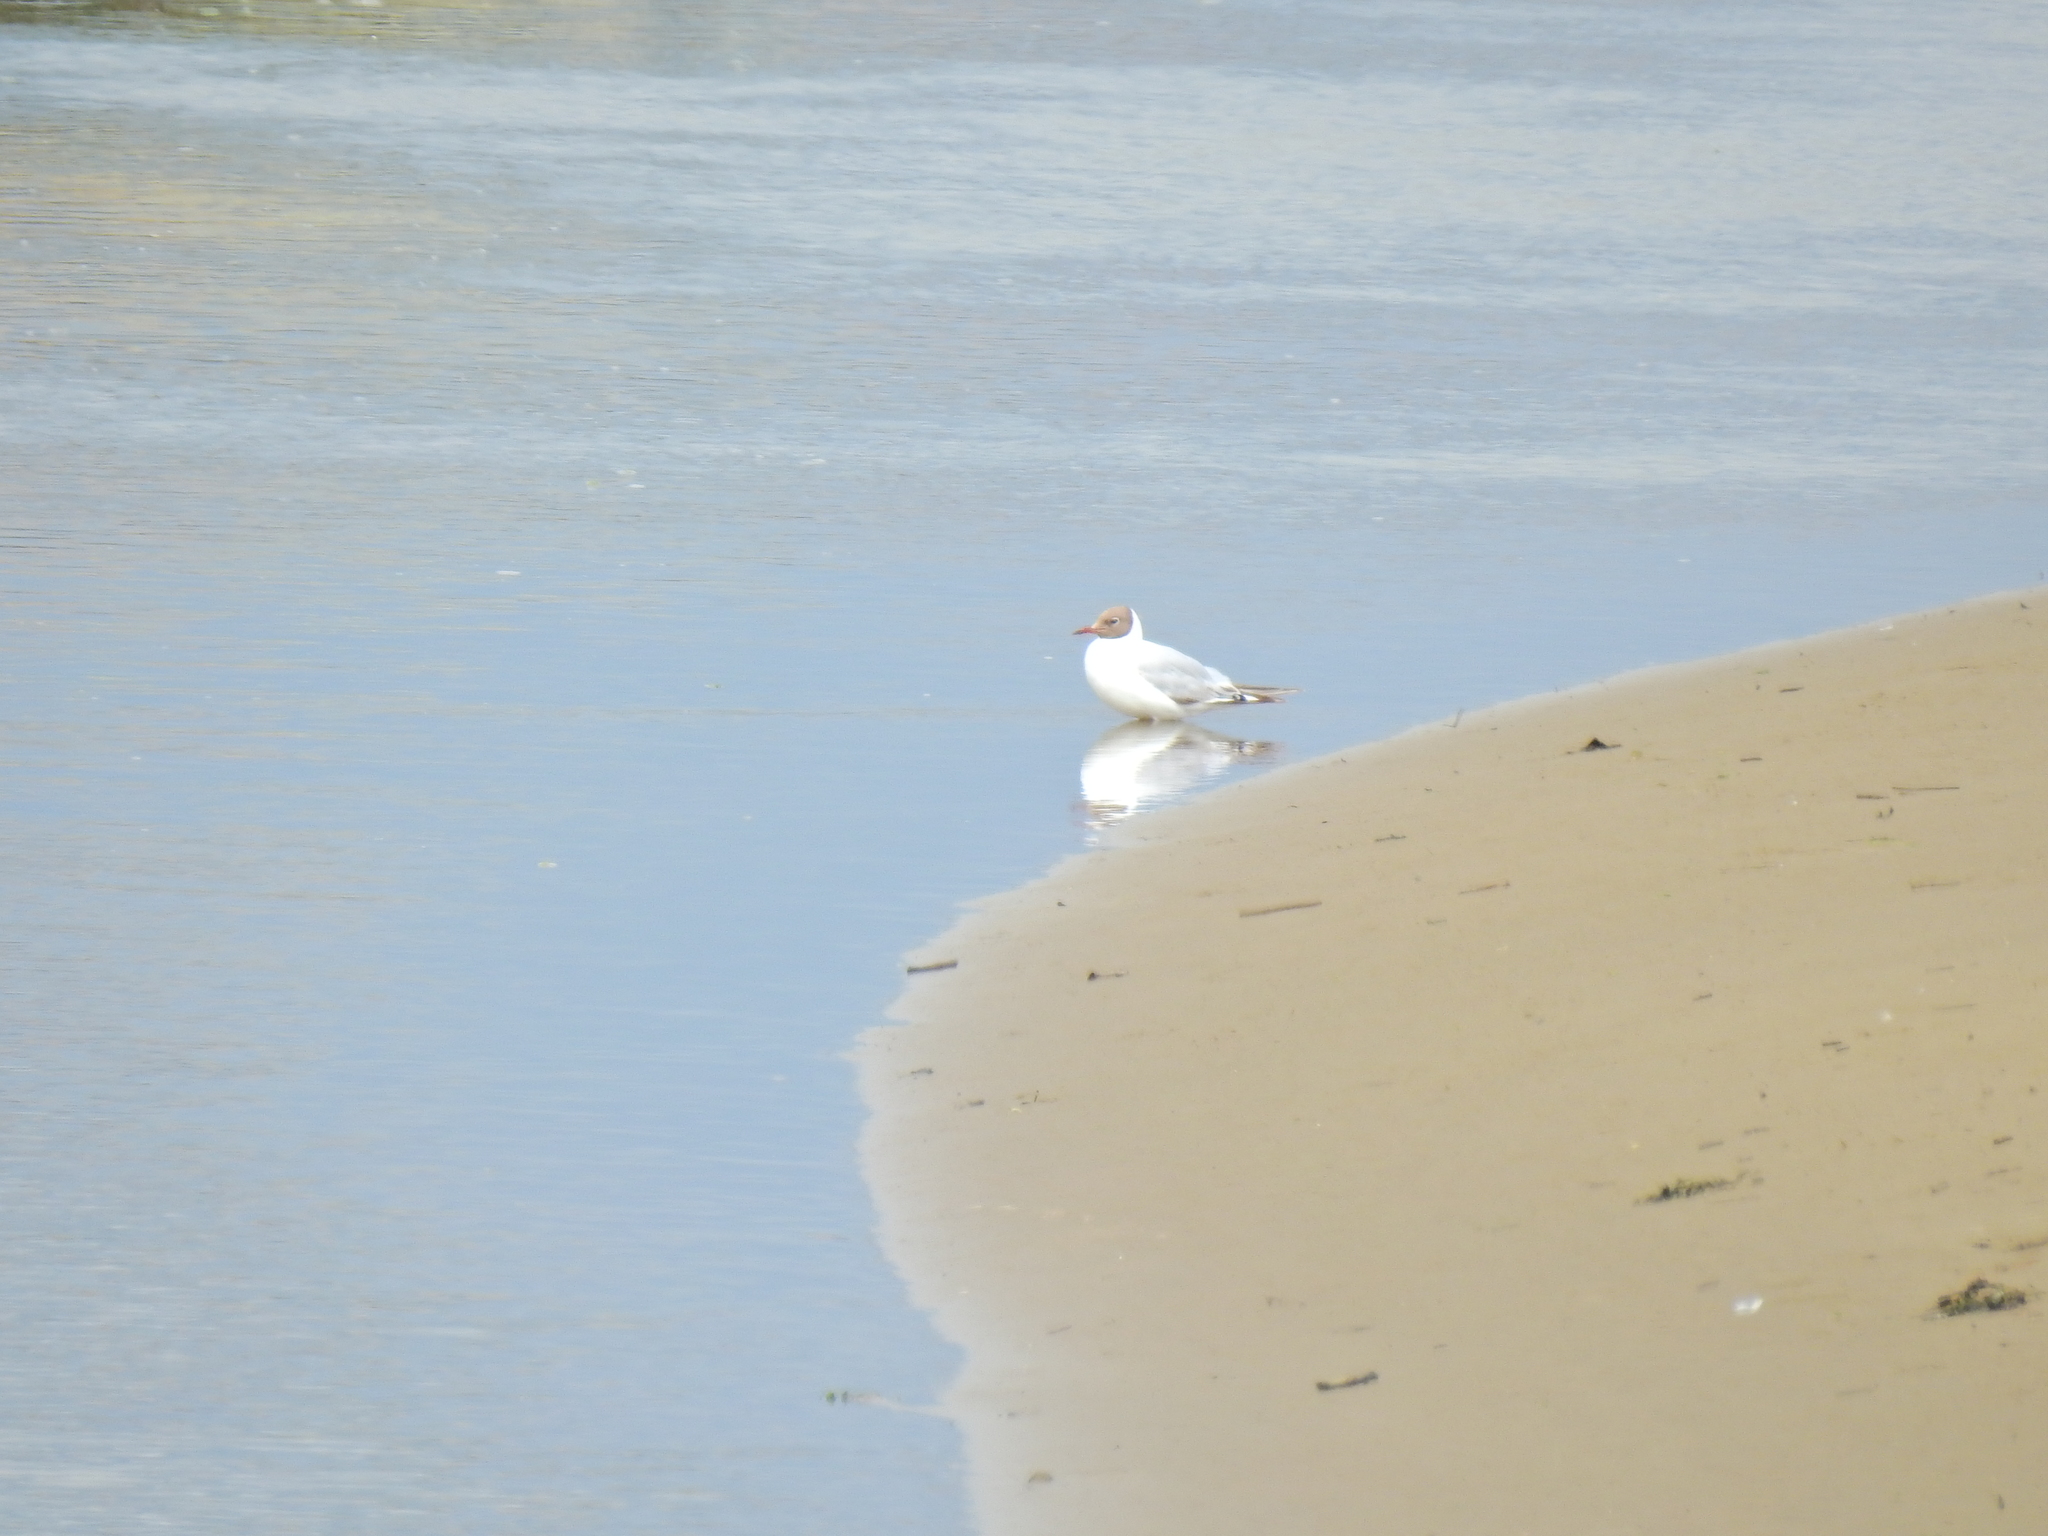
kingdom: Animalia
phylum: Chordata
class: Aves
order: Charadriiformes
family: Laridae
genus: Chroicocephalus
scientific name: Chroicocephalus ridibundus
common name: Black-headed gull
